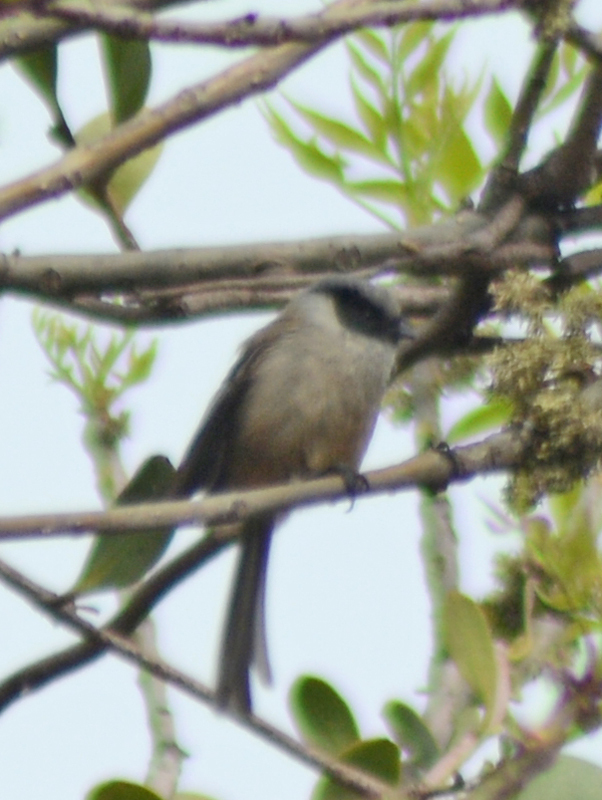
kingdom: Animalia
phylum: Chordata
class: Aves
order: Passeriformes
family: Aegithalidae
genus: Psaltriparus
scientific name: Psaltriparus minimus
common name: American bushtit
